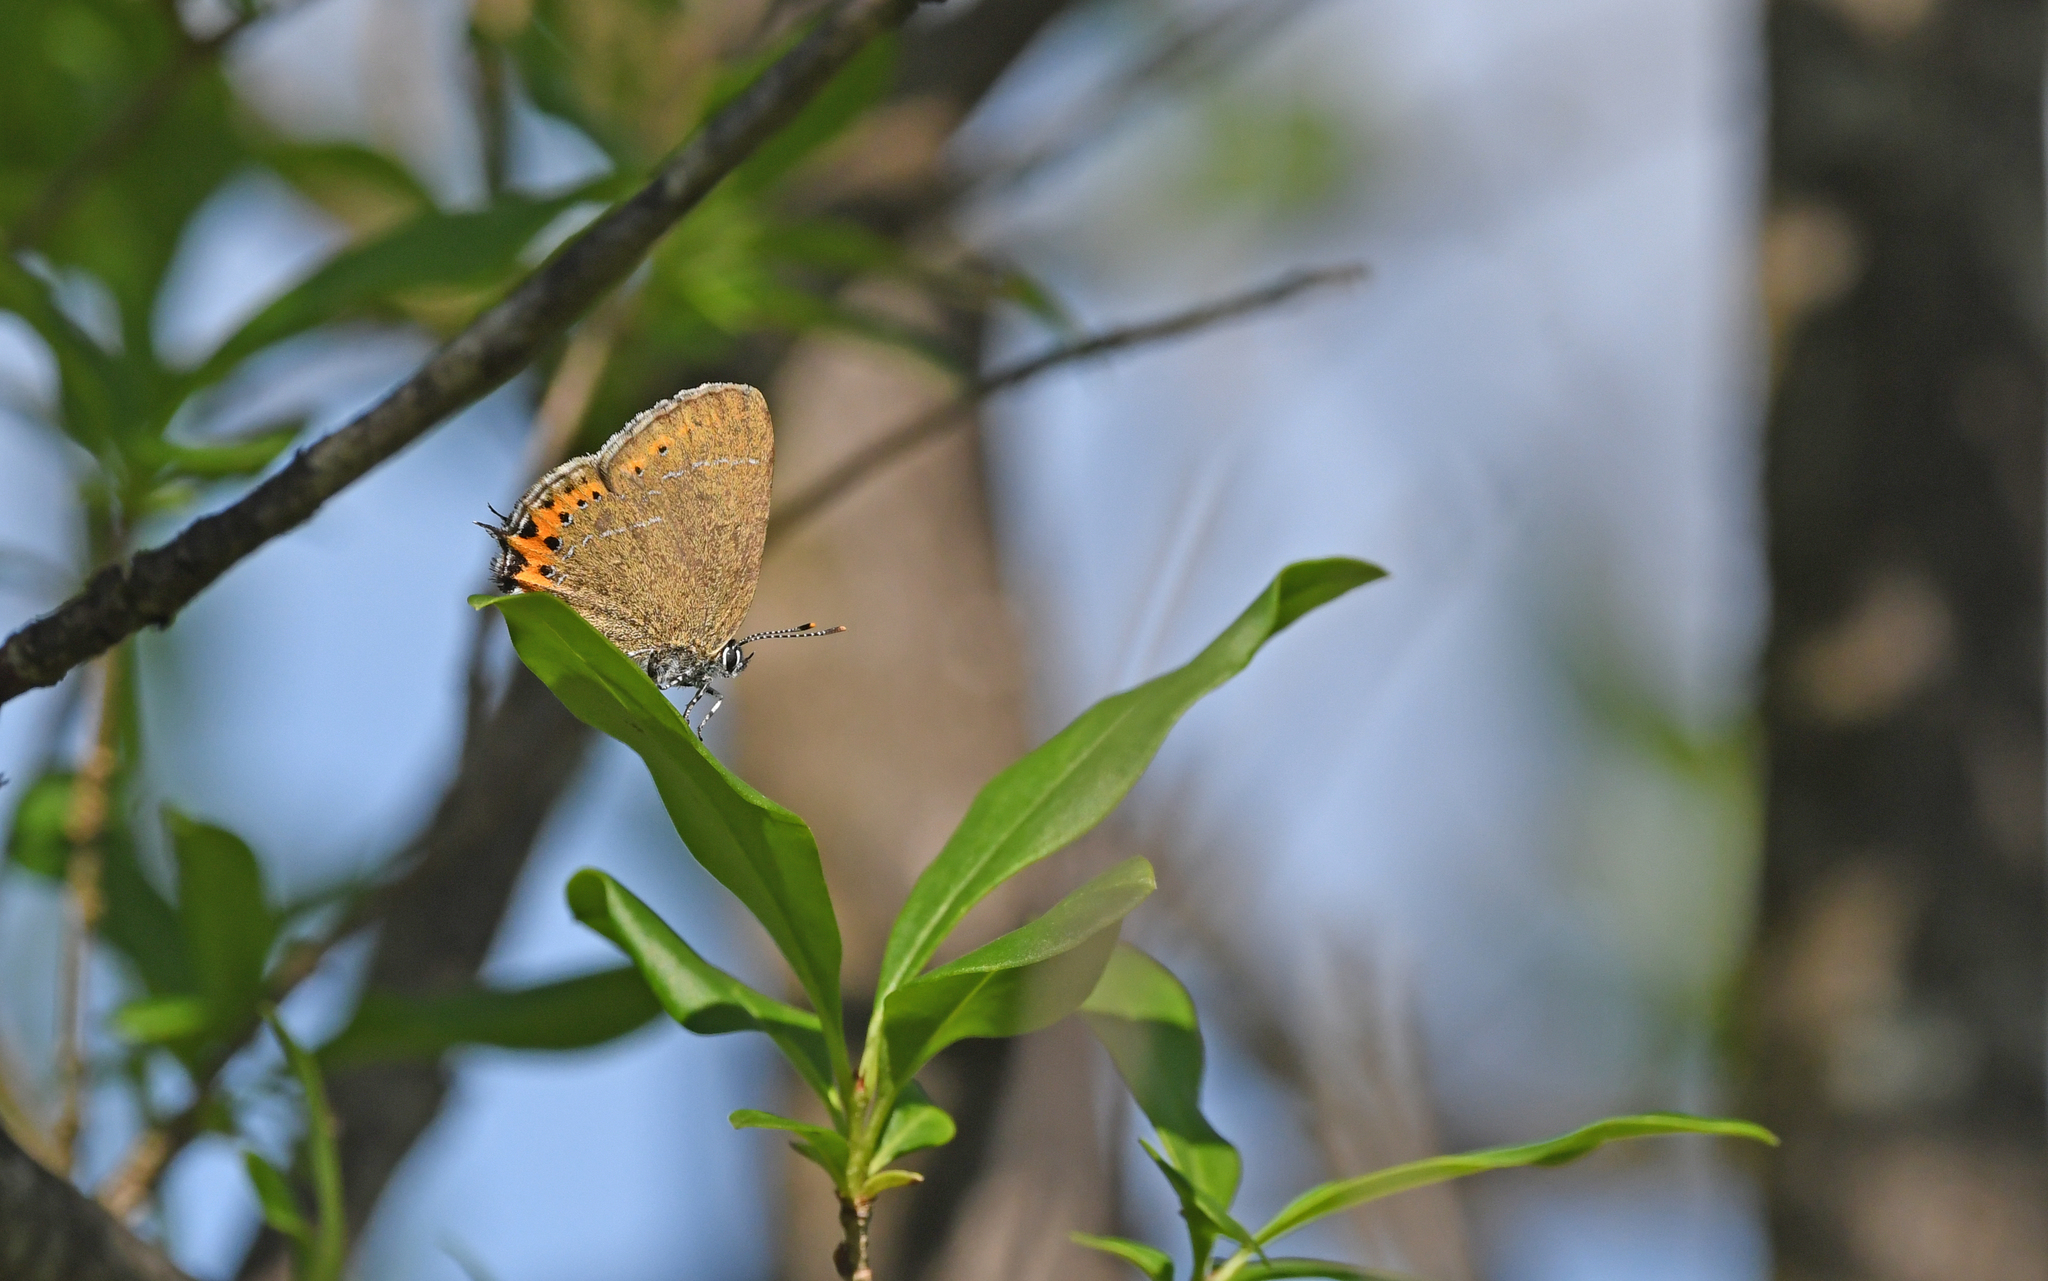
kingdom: Animalia
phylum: Arthropoda
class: Insecta
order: Lepidoptera
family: Lycaenidae
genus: Fixsenia
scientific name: Fixsenia pruni
